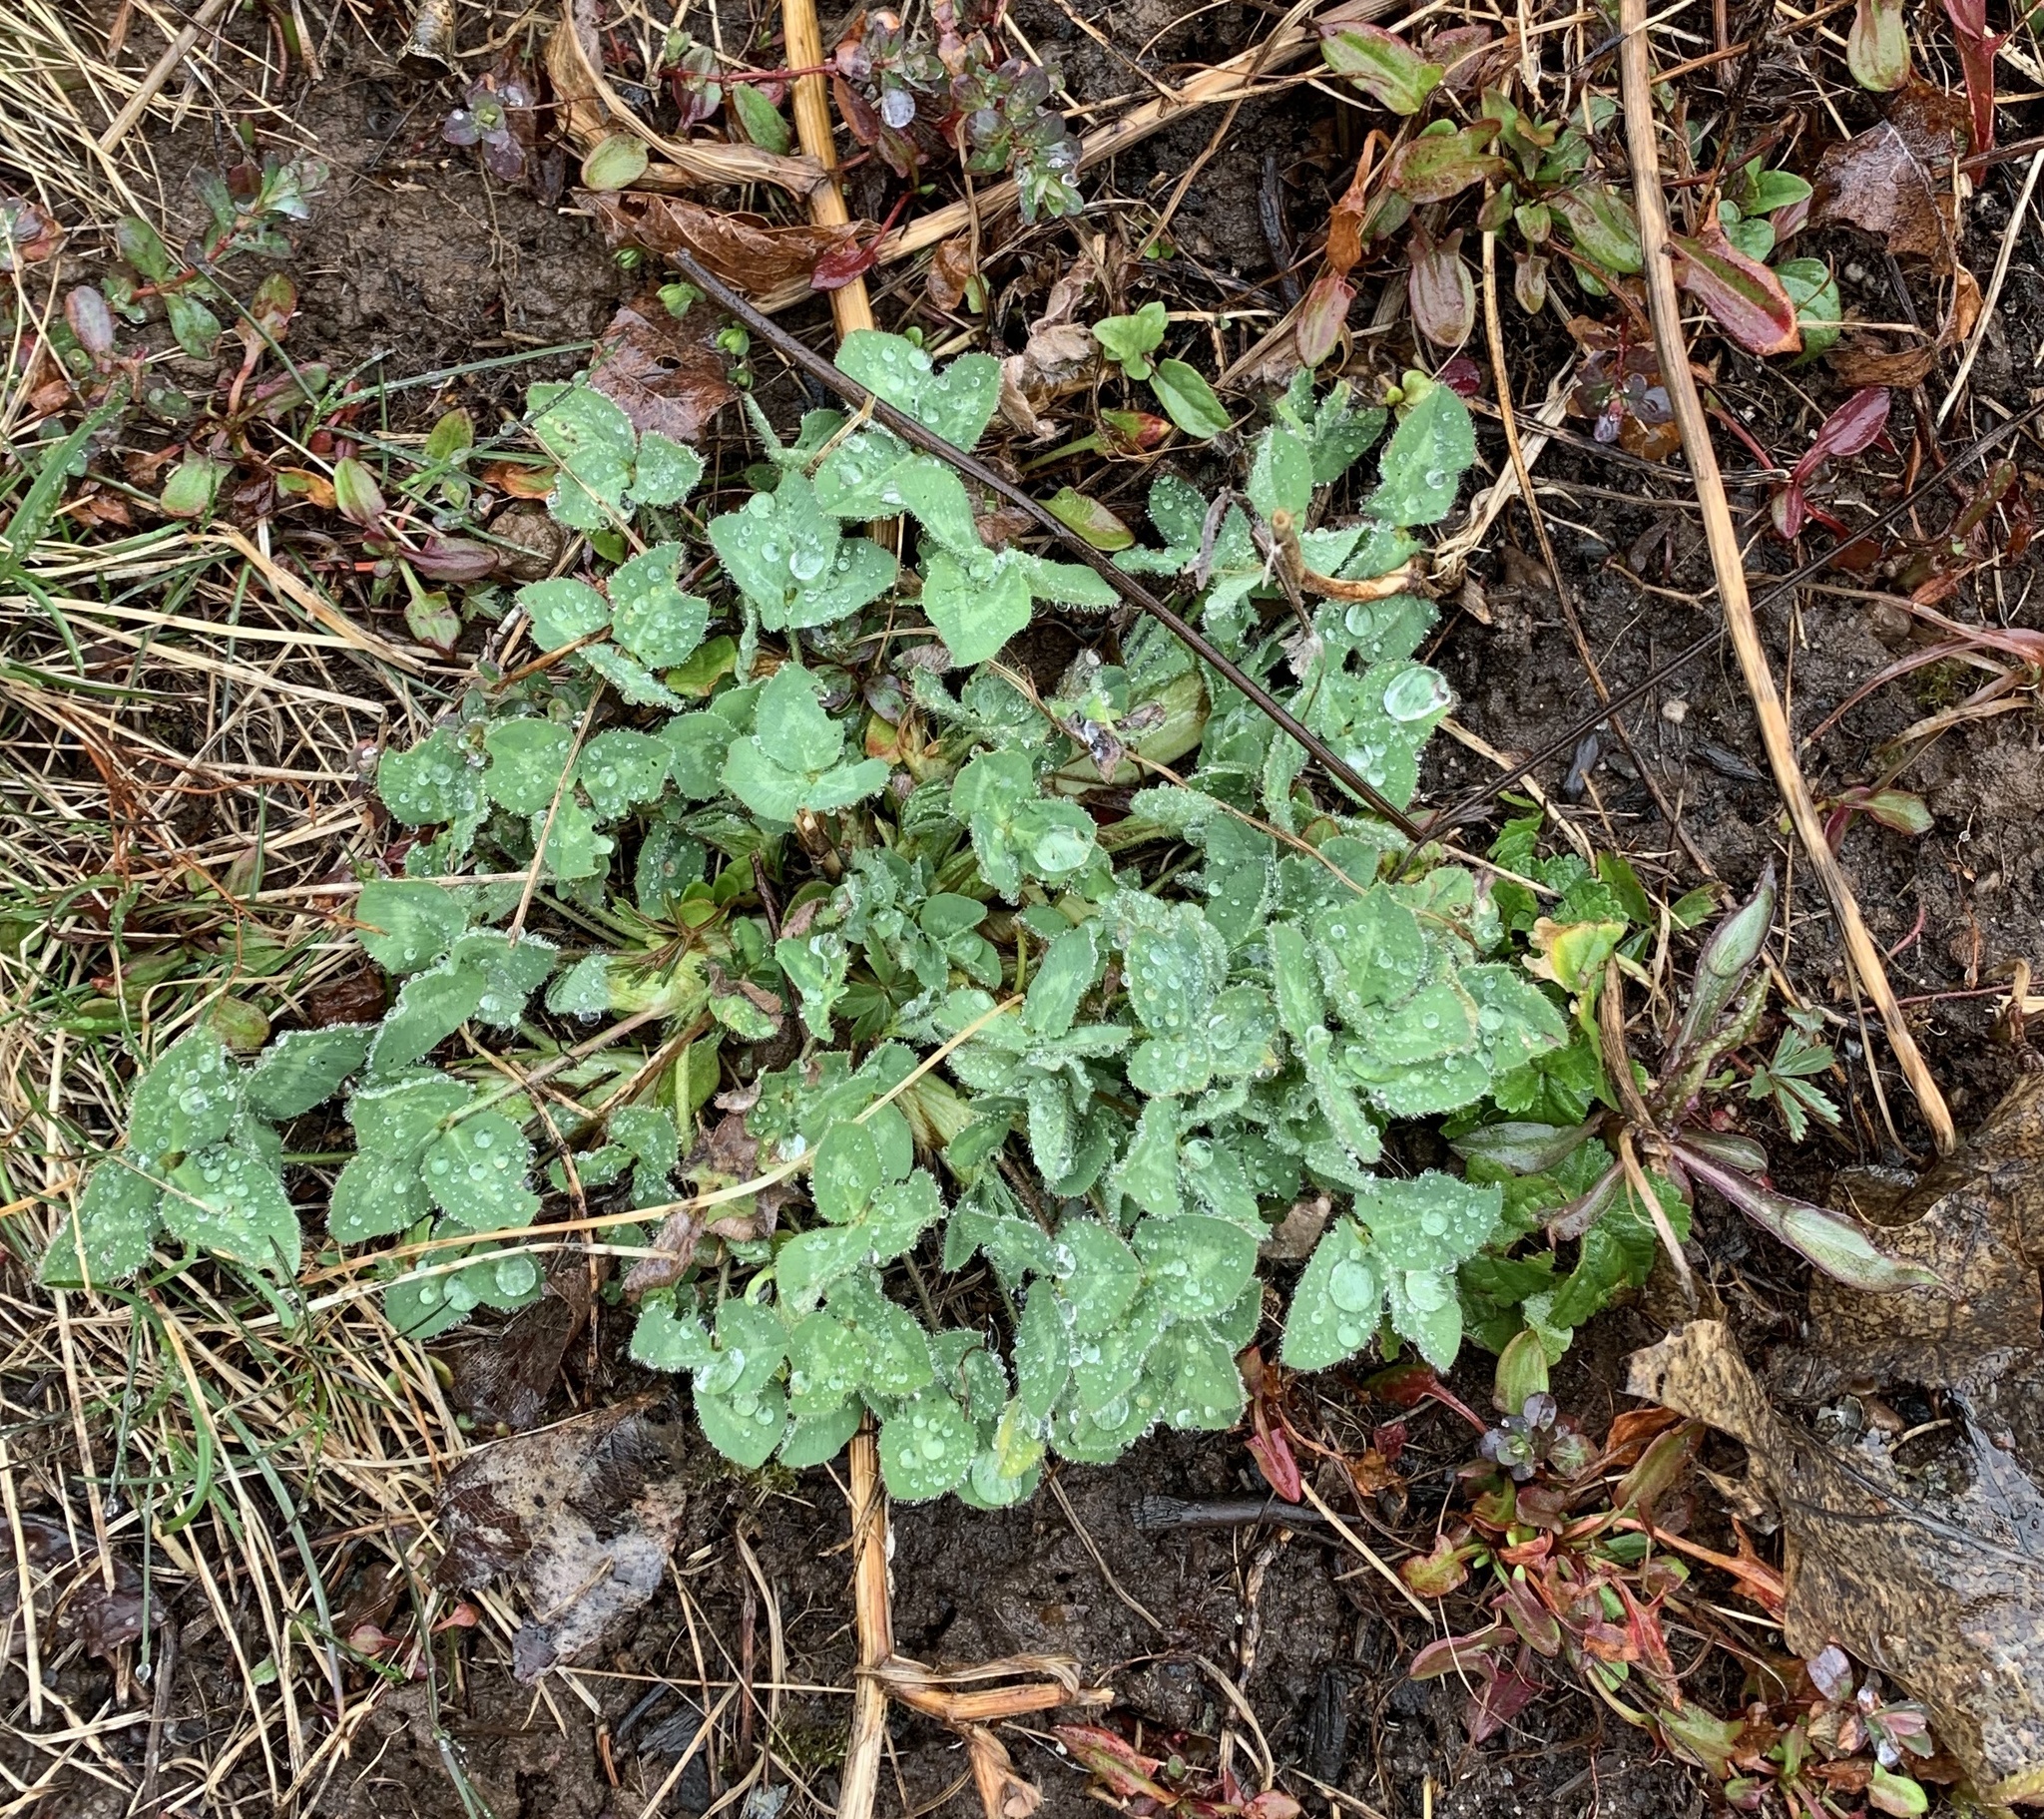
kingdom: Plantae
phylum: Tracheophyta
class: Magnoliopsida
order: Fabales
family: Fabaceae
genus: Trifolium
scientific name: Trifolium pratense
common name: Red clover
